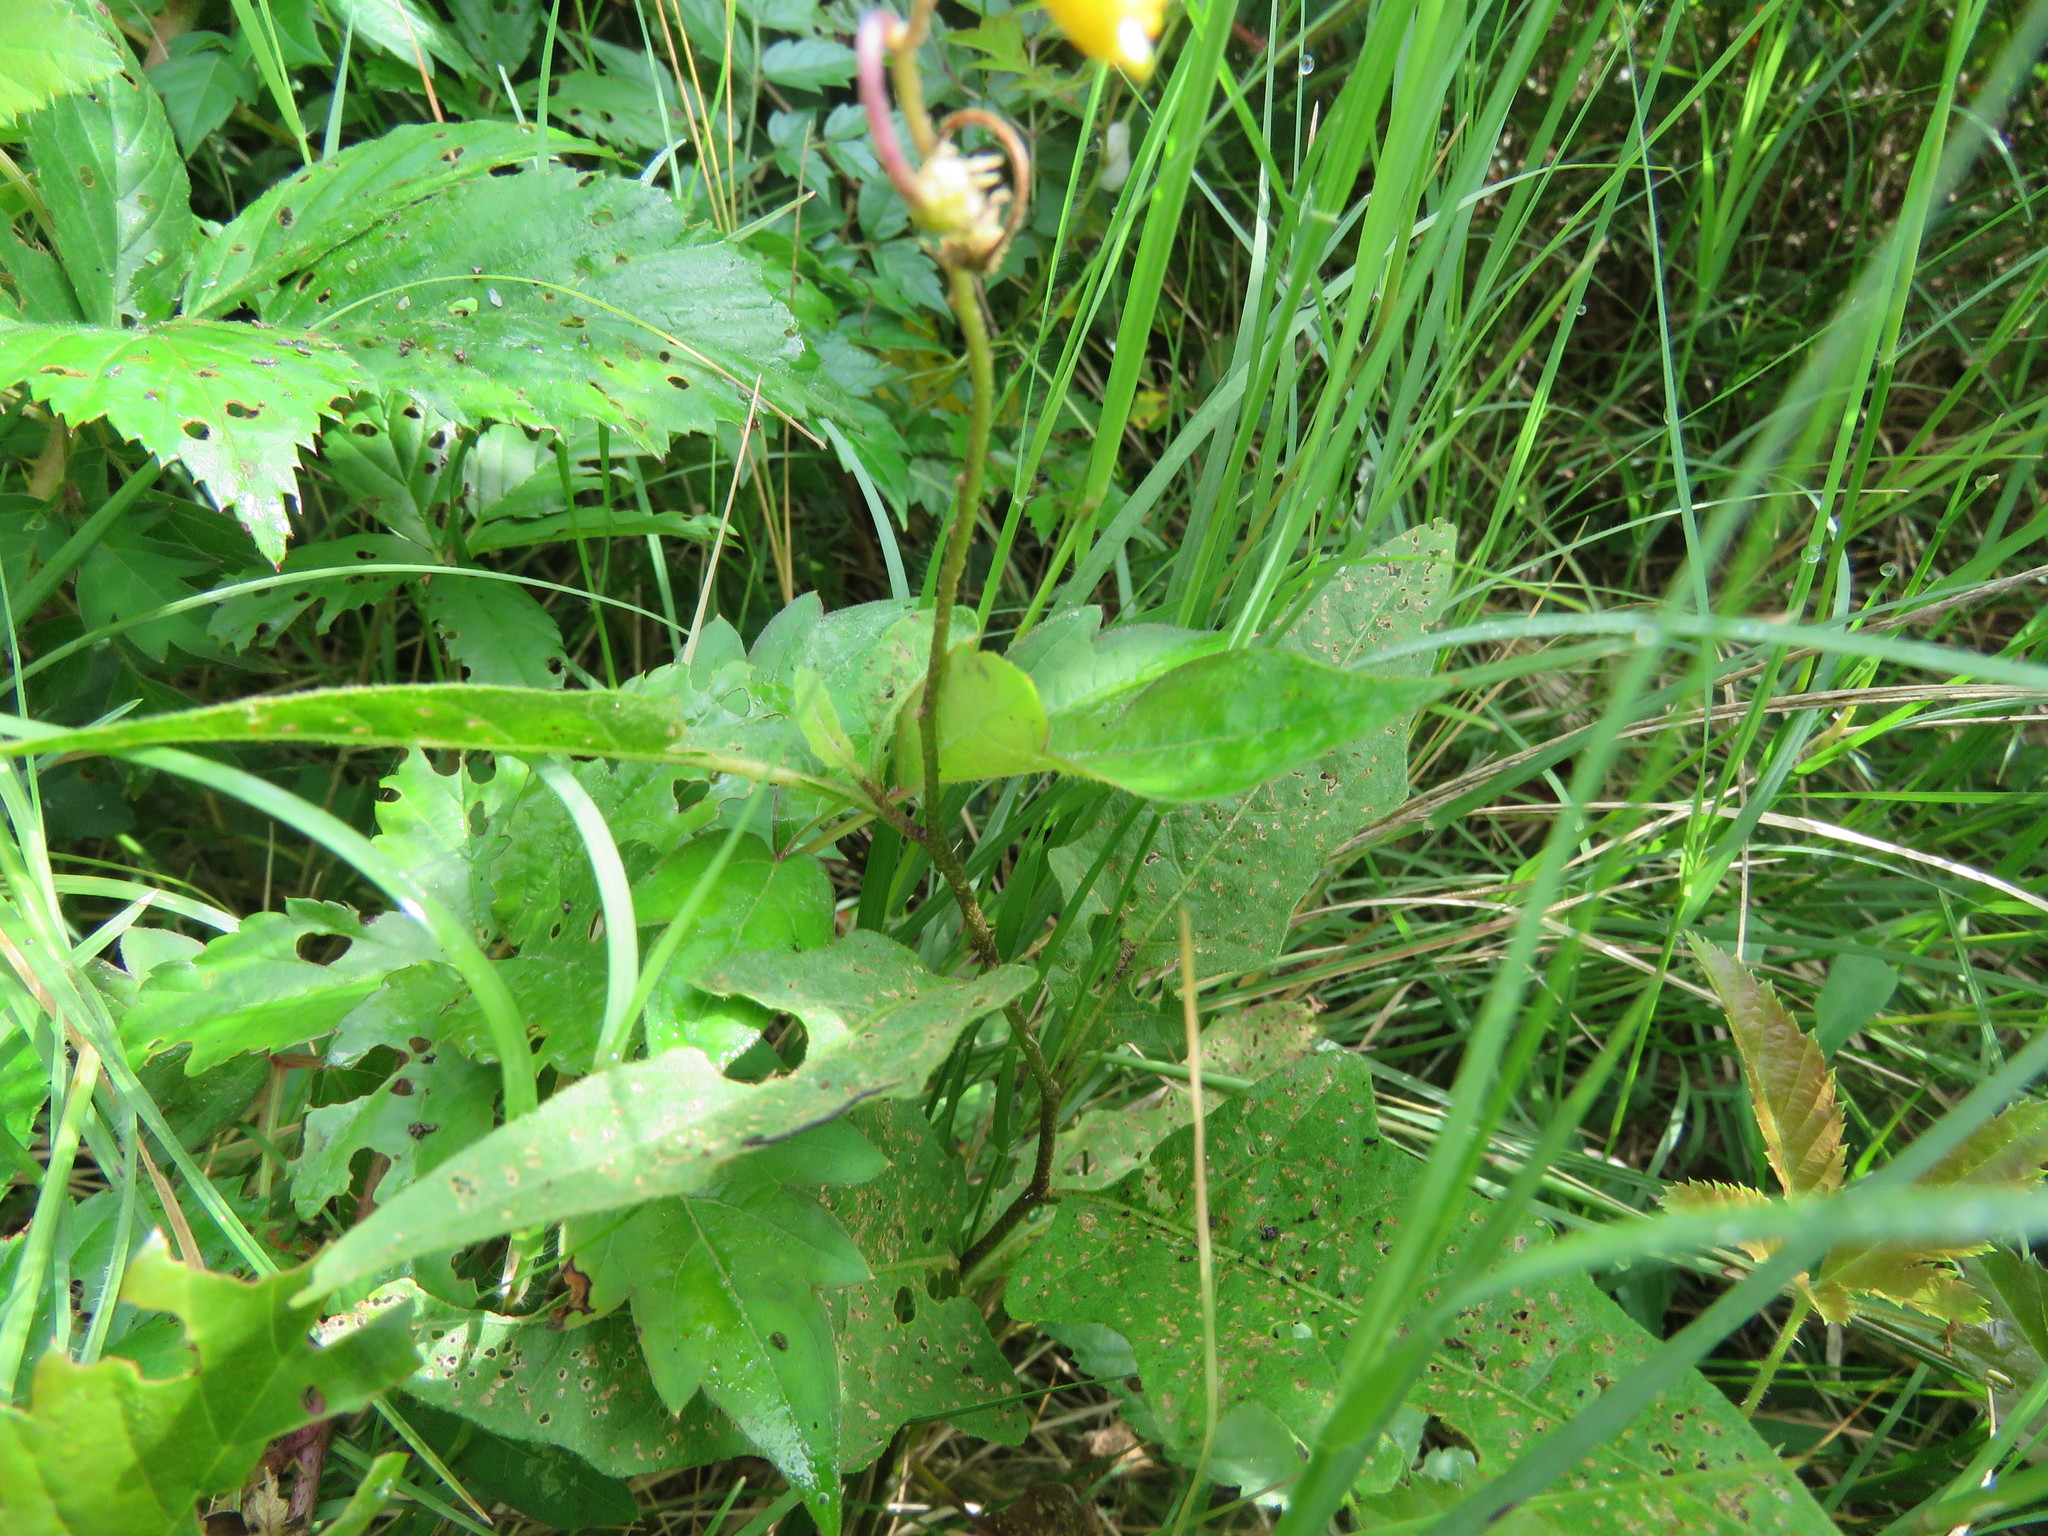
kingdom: Plantae
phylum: Tracheophyta
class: Magnoliopsida
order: Solanales
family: Solanaceae
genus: Solanum
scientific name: Solanum carolinense
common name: Horse-nettle
